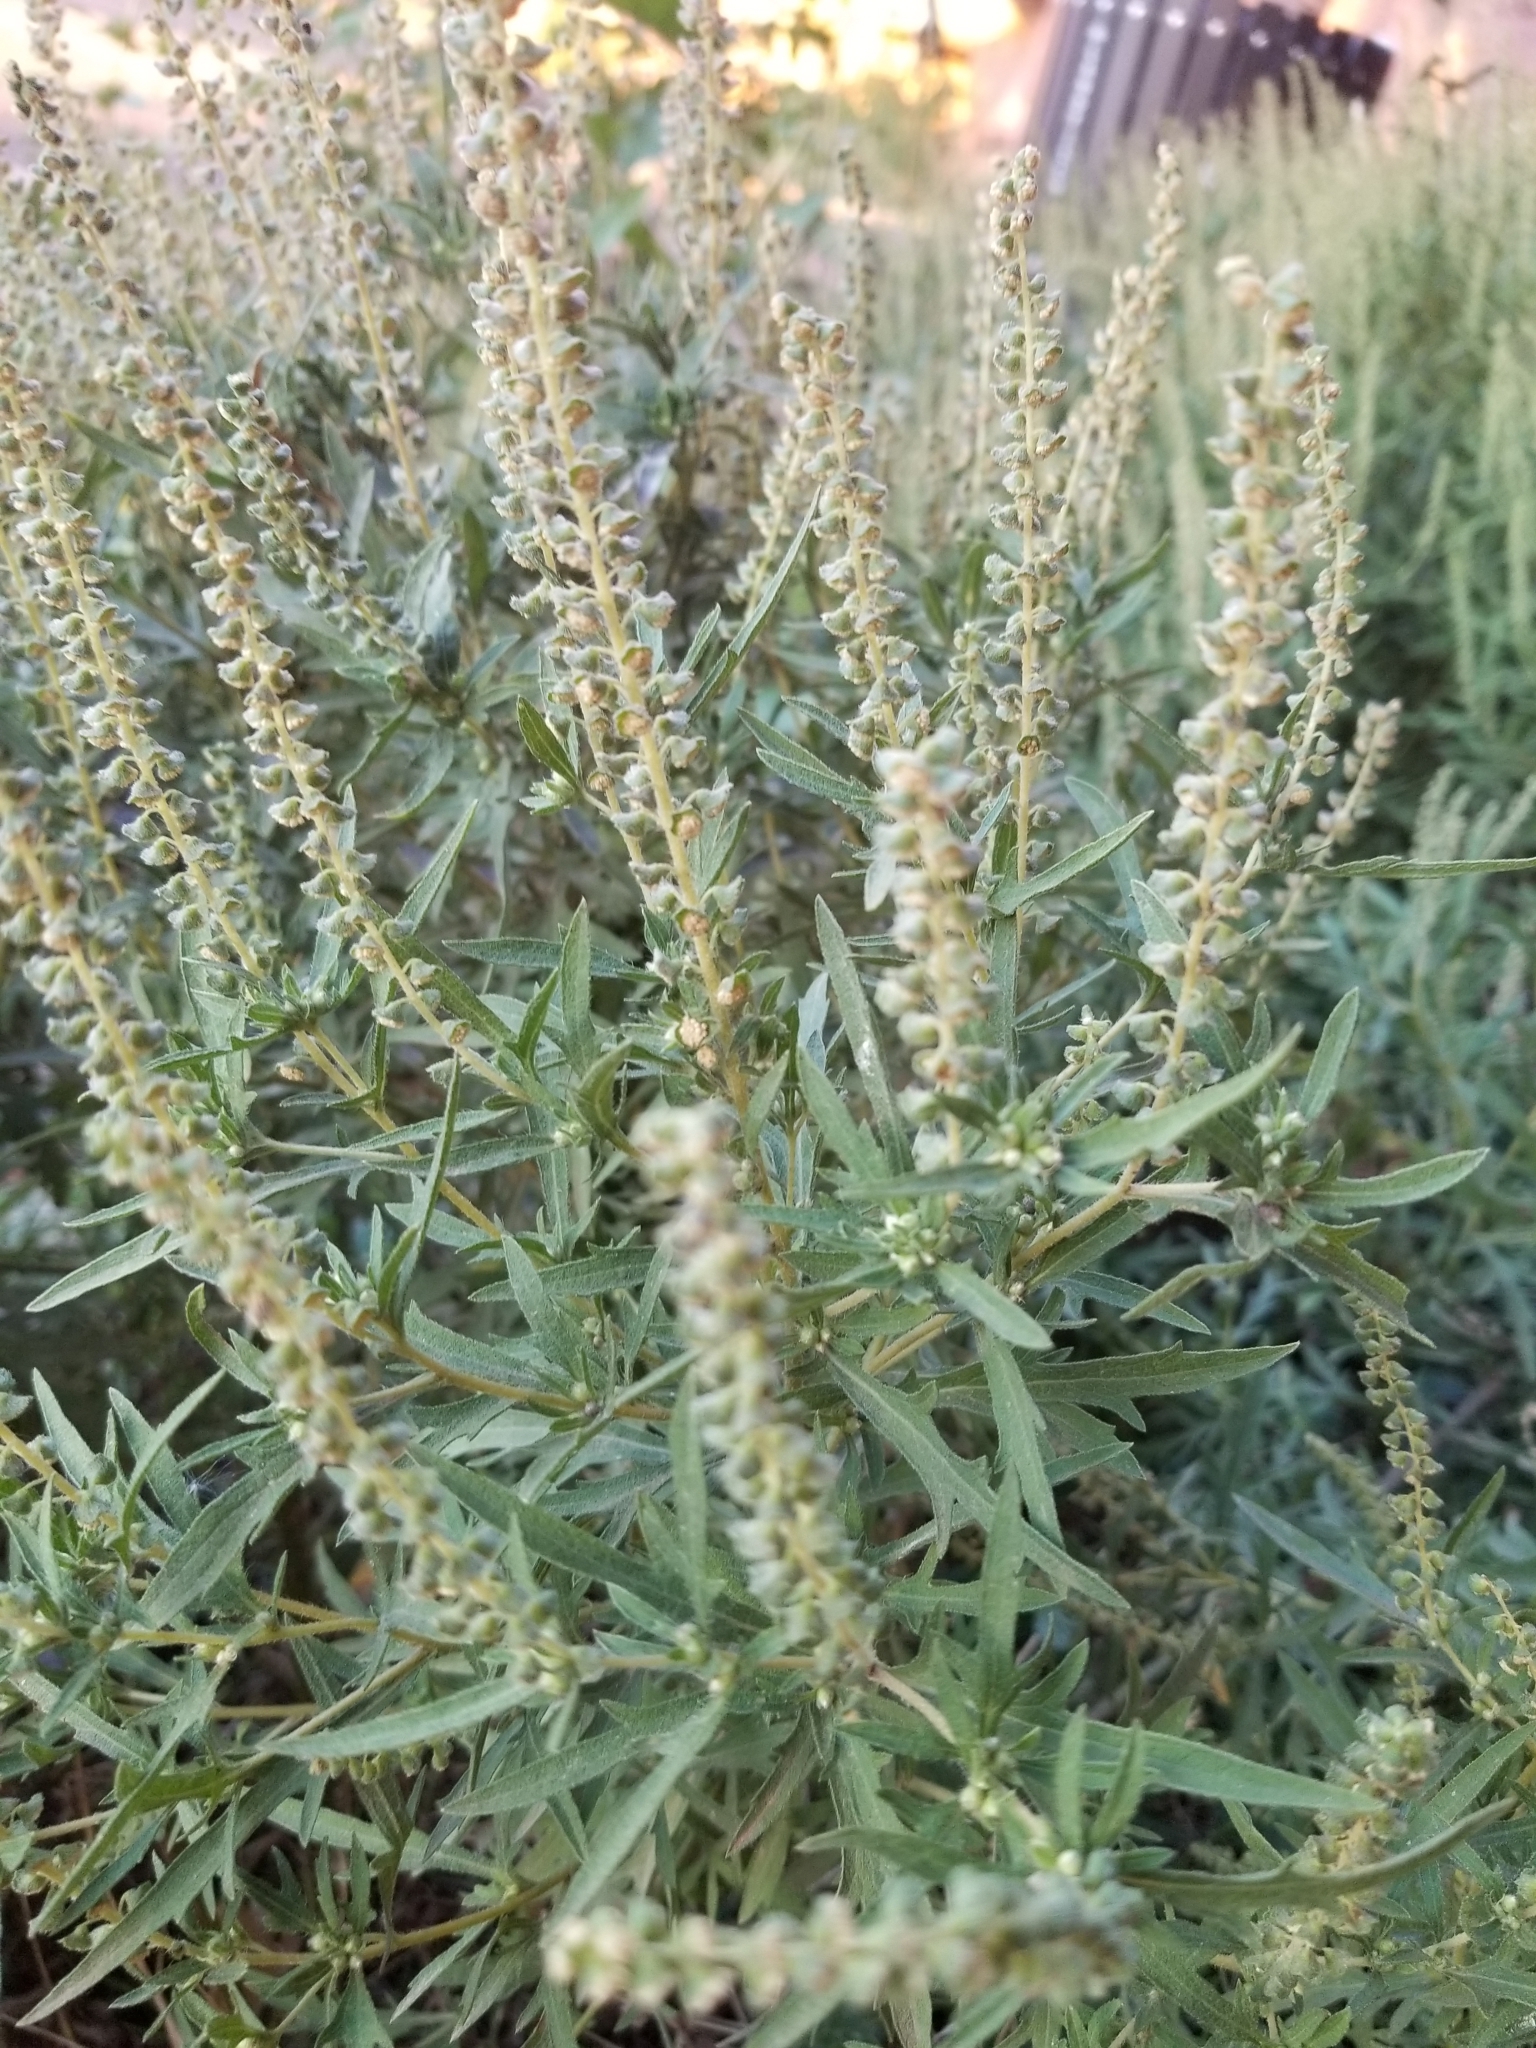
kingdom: Plantae
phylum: Tracheophyta
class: Magnoliopsida
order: Asterales
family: Asteraceae
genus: Ambrosia
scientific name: Ambrosia psilostachya
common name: Perennial ragweed
